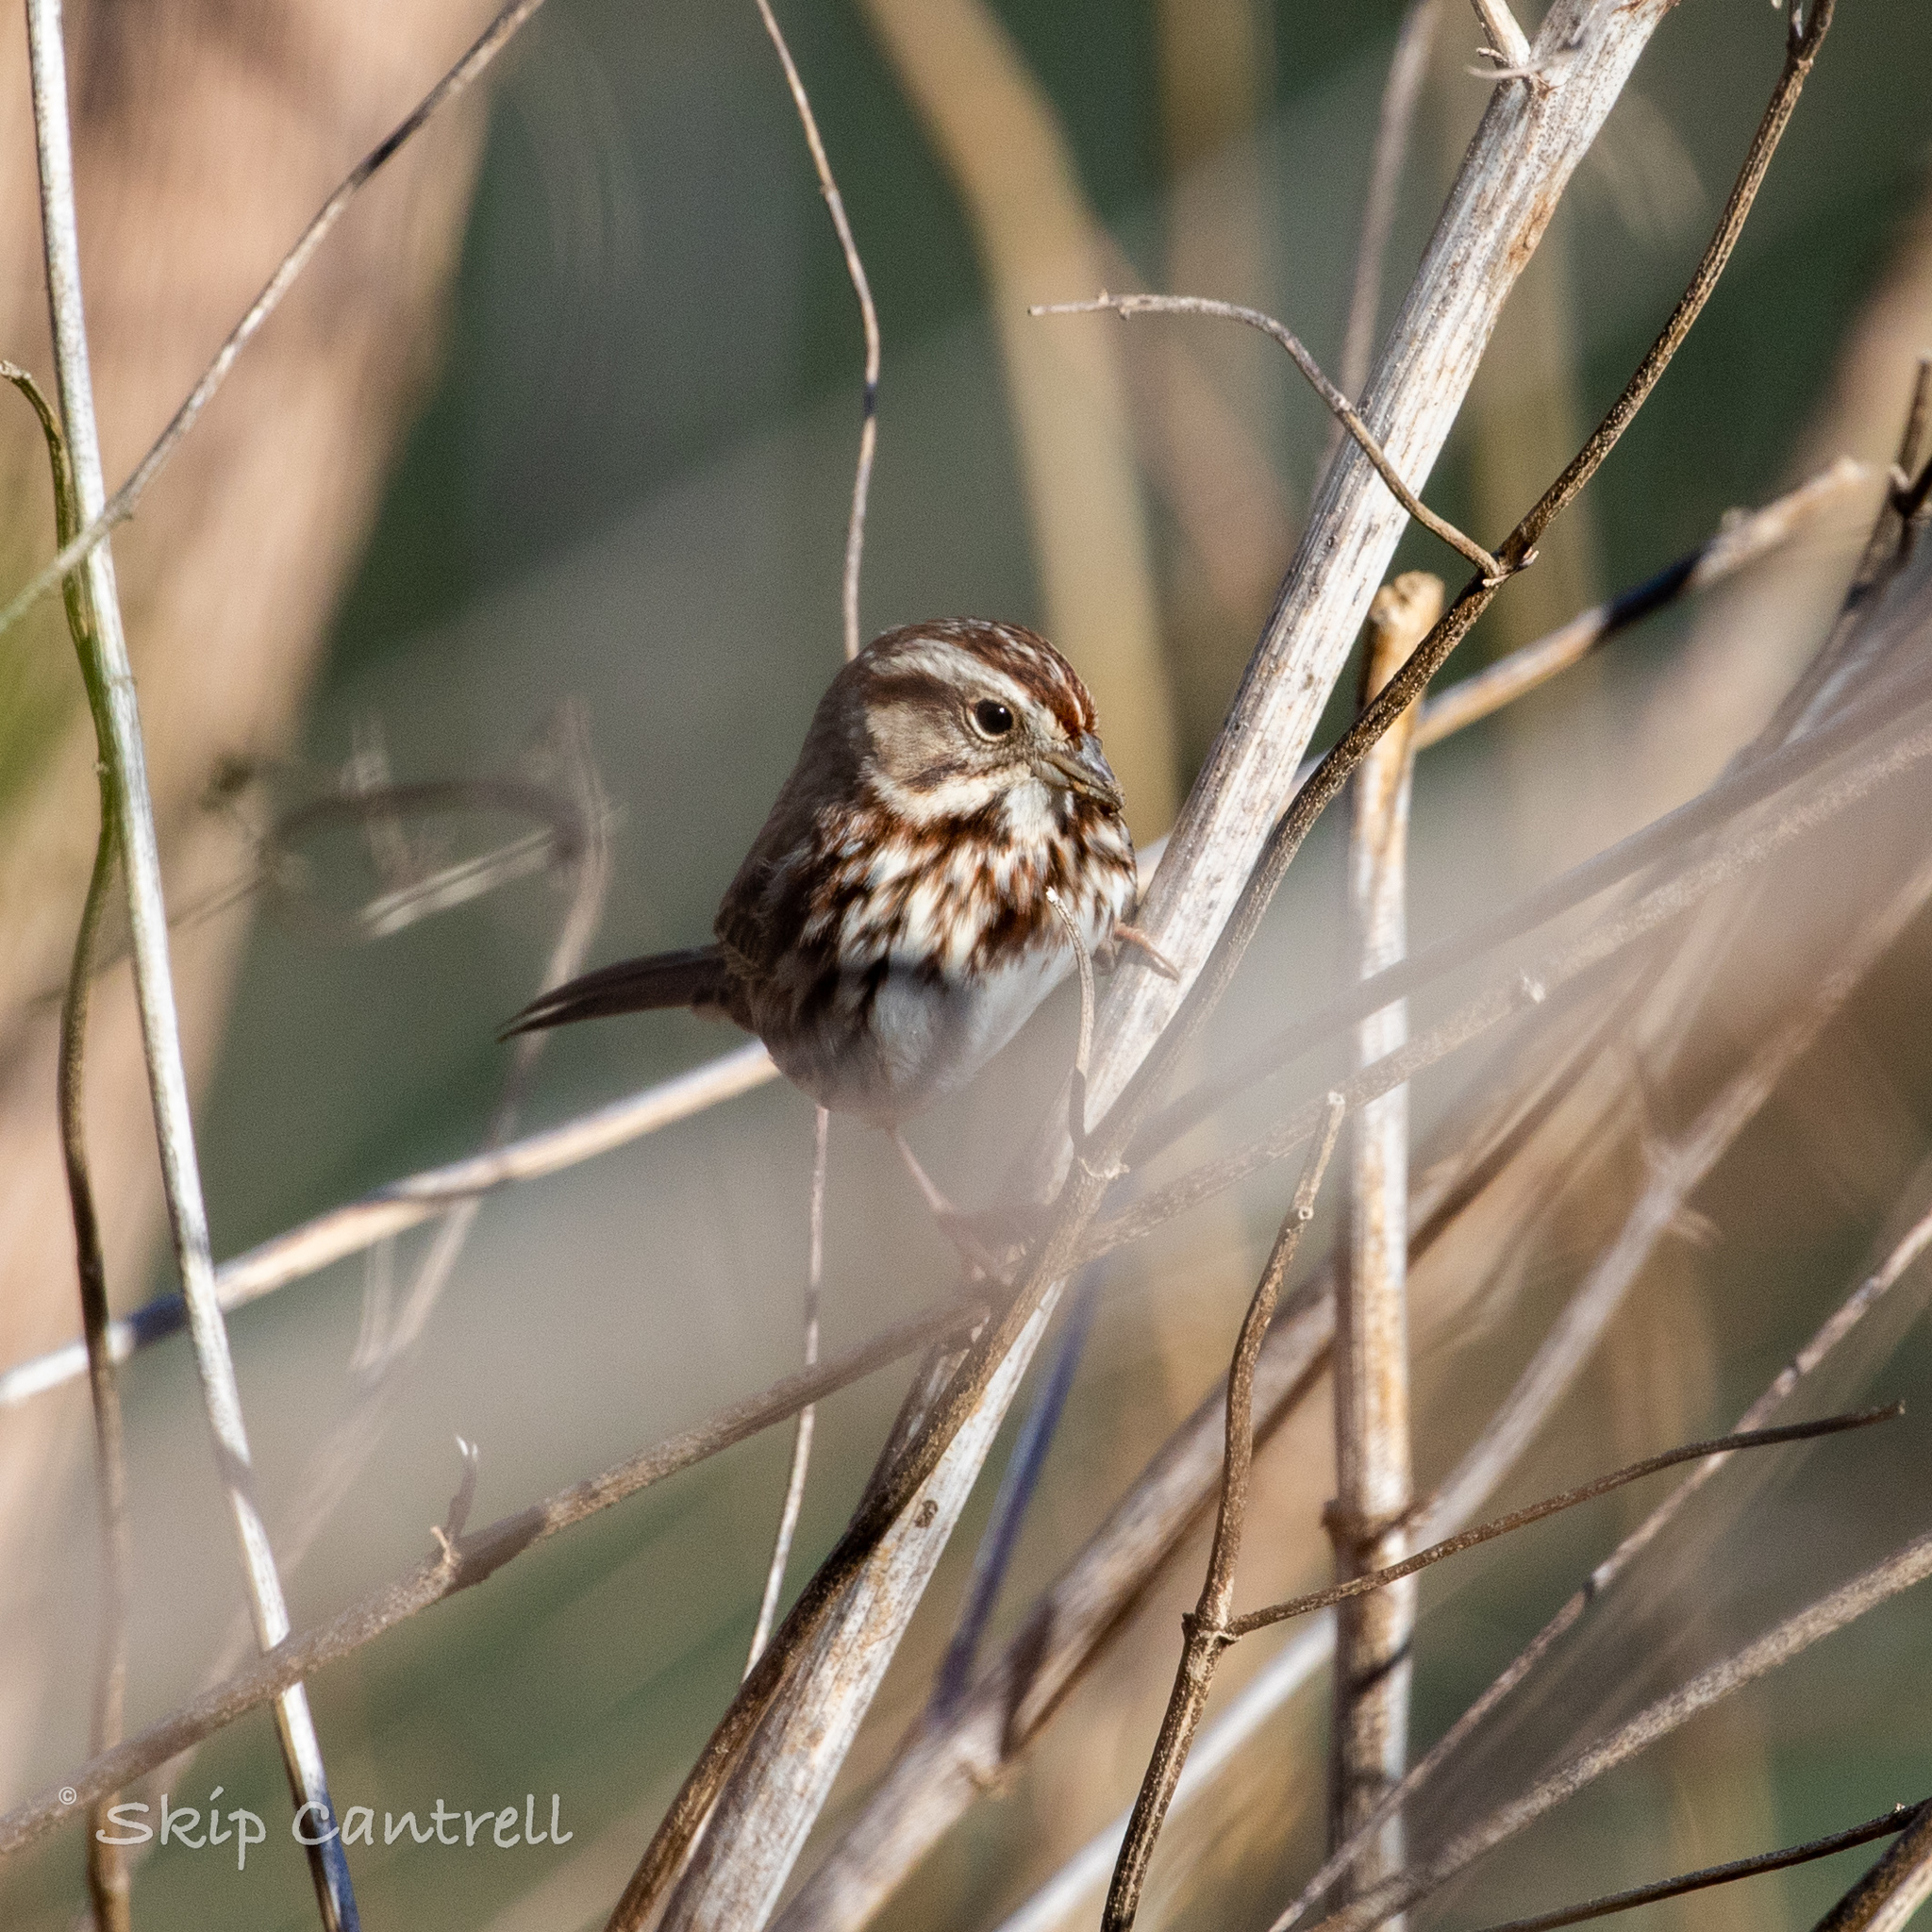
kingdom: Animalia
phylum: Chordata
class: Aves
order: Passeriformes
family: Passerellidae
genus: Melospiza
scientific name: Melospiza melodia
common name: Song sparrow
